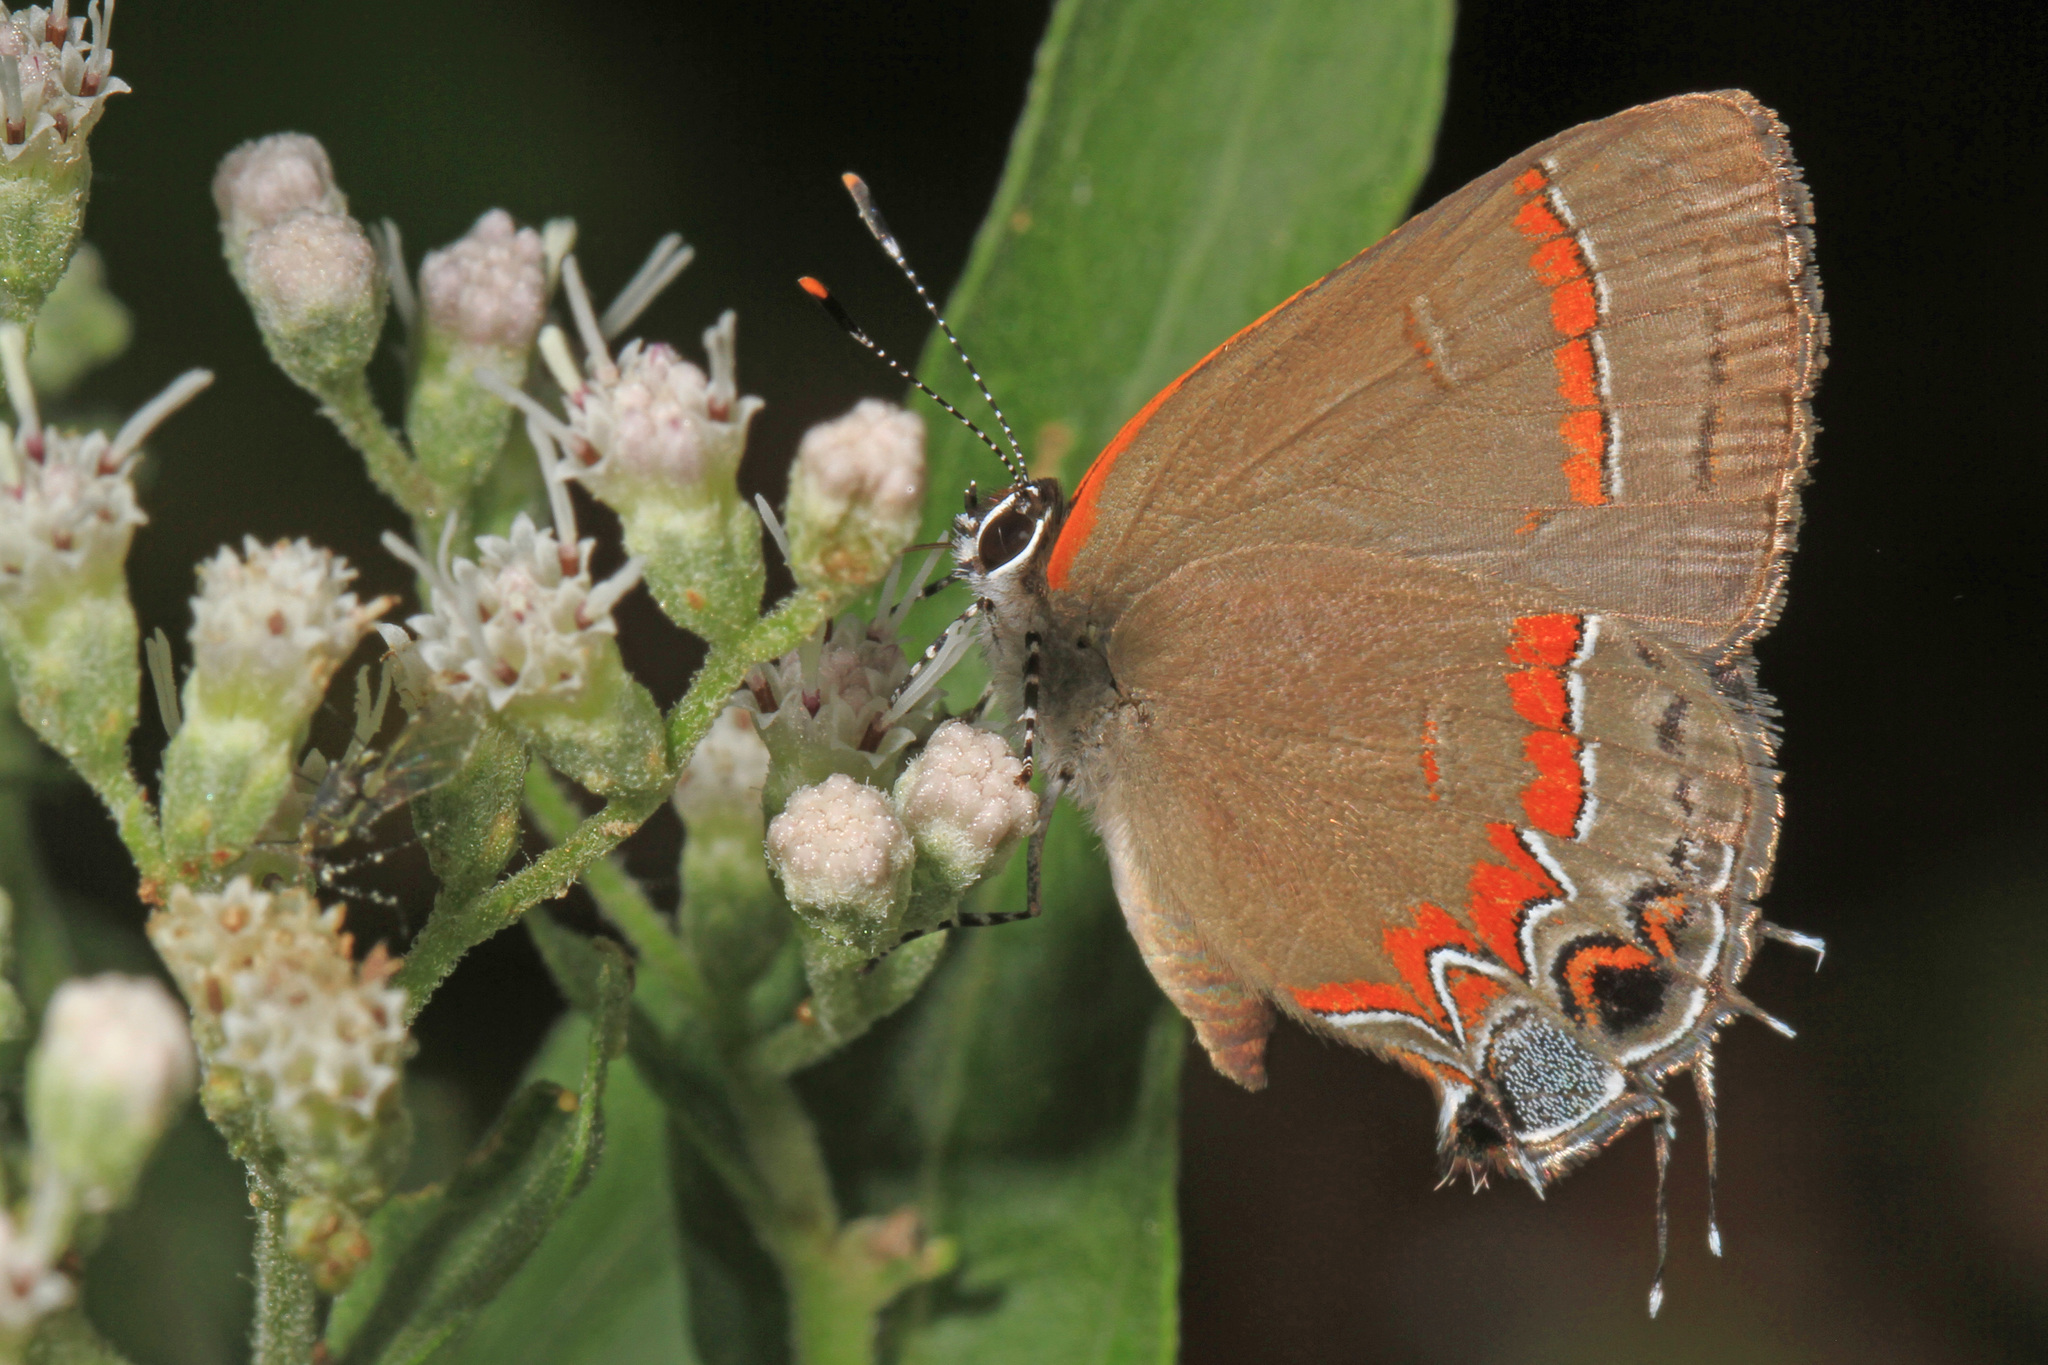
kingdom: Animalia
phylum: Arthropoda
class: Insecta
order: Lepidoptera
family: Lycaenidae
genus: Calycopis
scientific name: Calycopis cecrops
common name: Red-banded hairstreak
